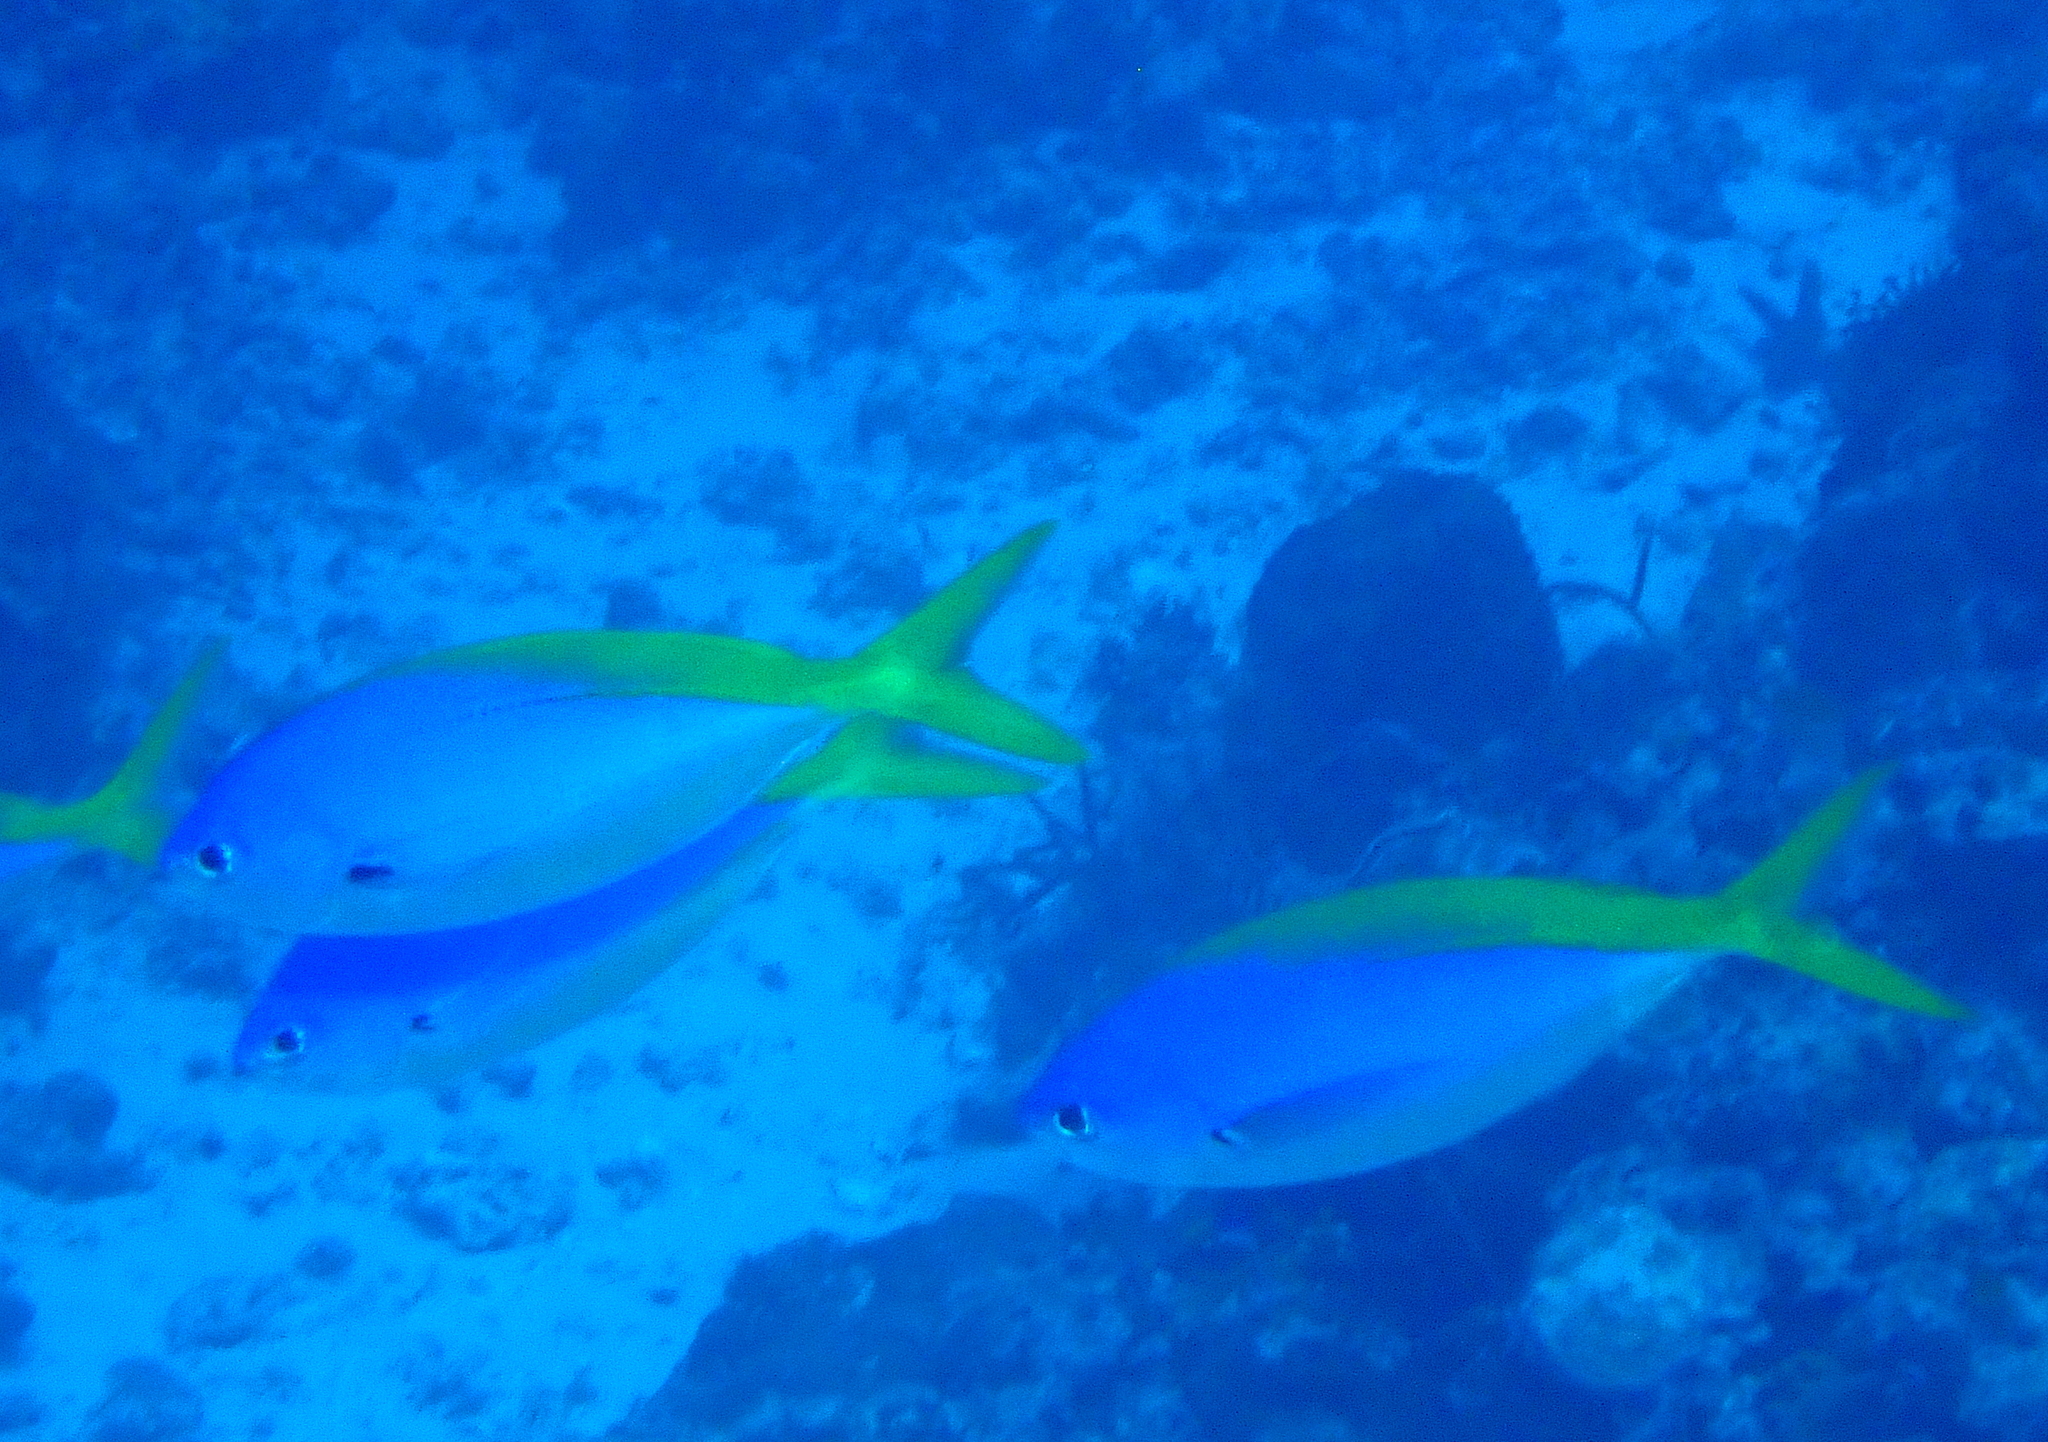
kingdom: Animalia
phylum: Chordata
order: Perciformes
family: Caesionidae
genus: Caesio
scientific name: Caesio teres
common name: Yellow and blueback fusilier
